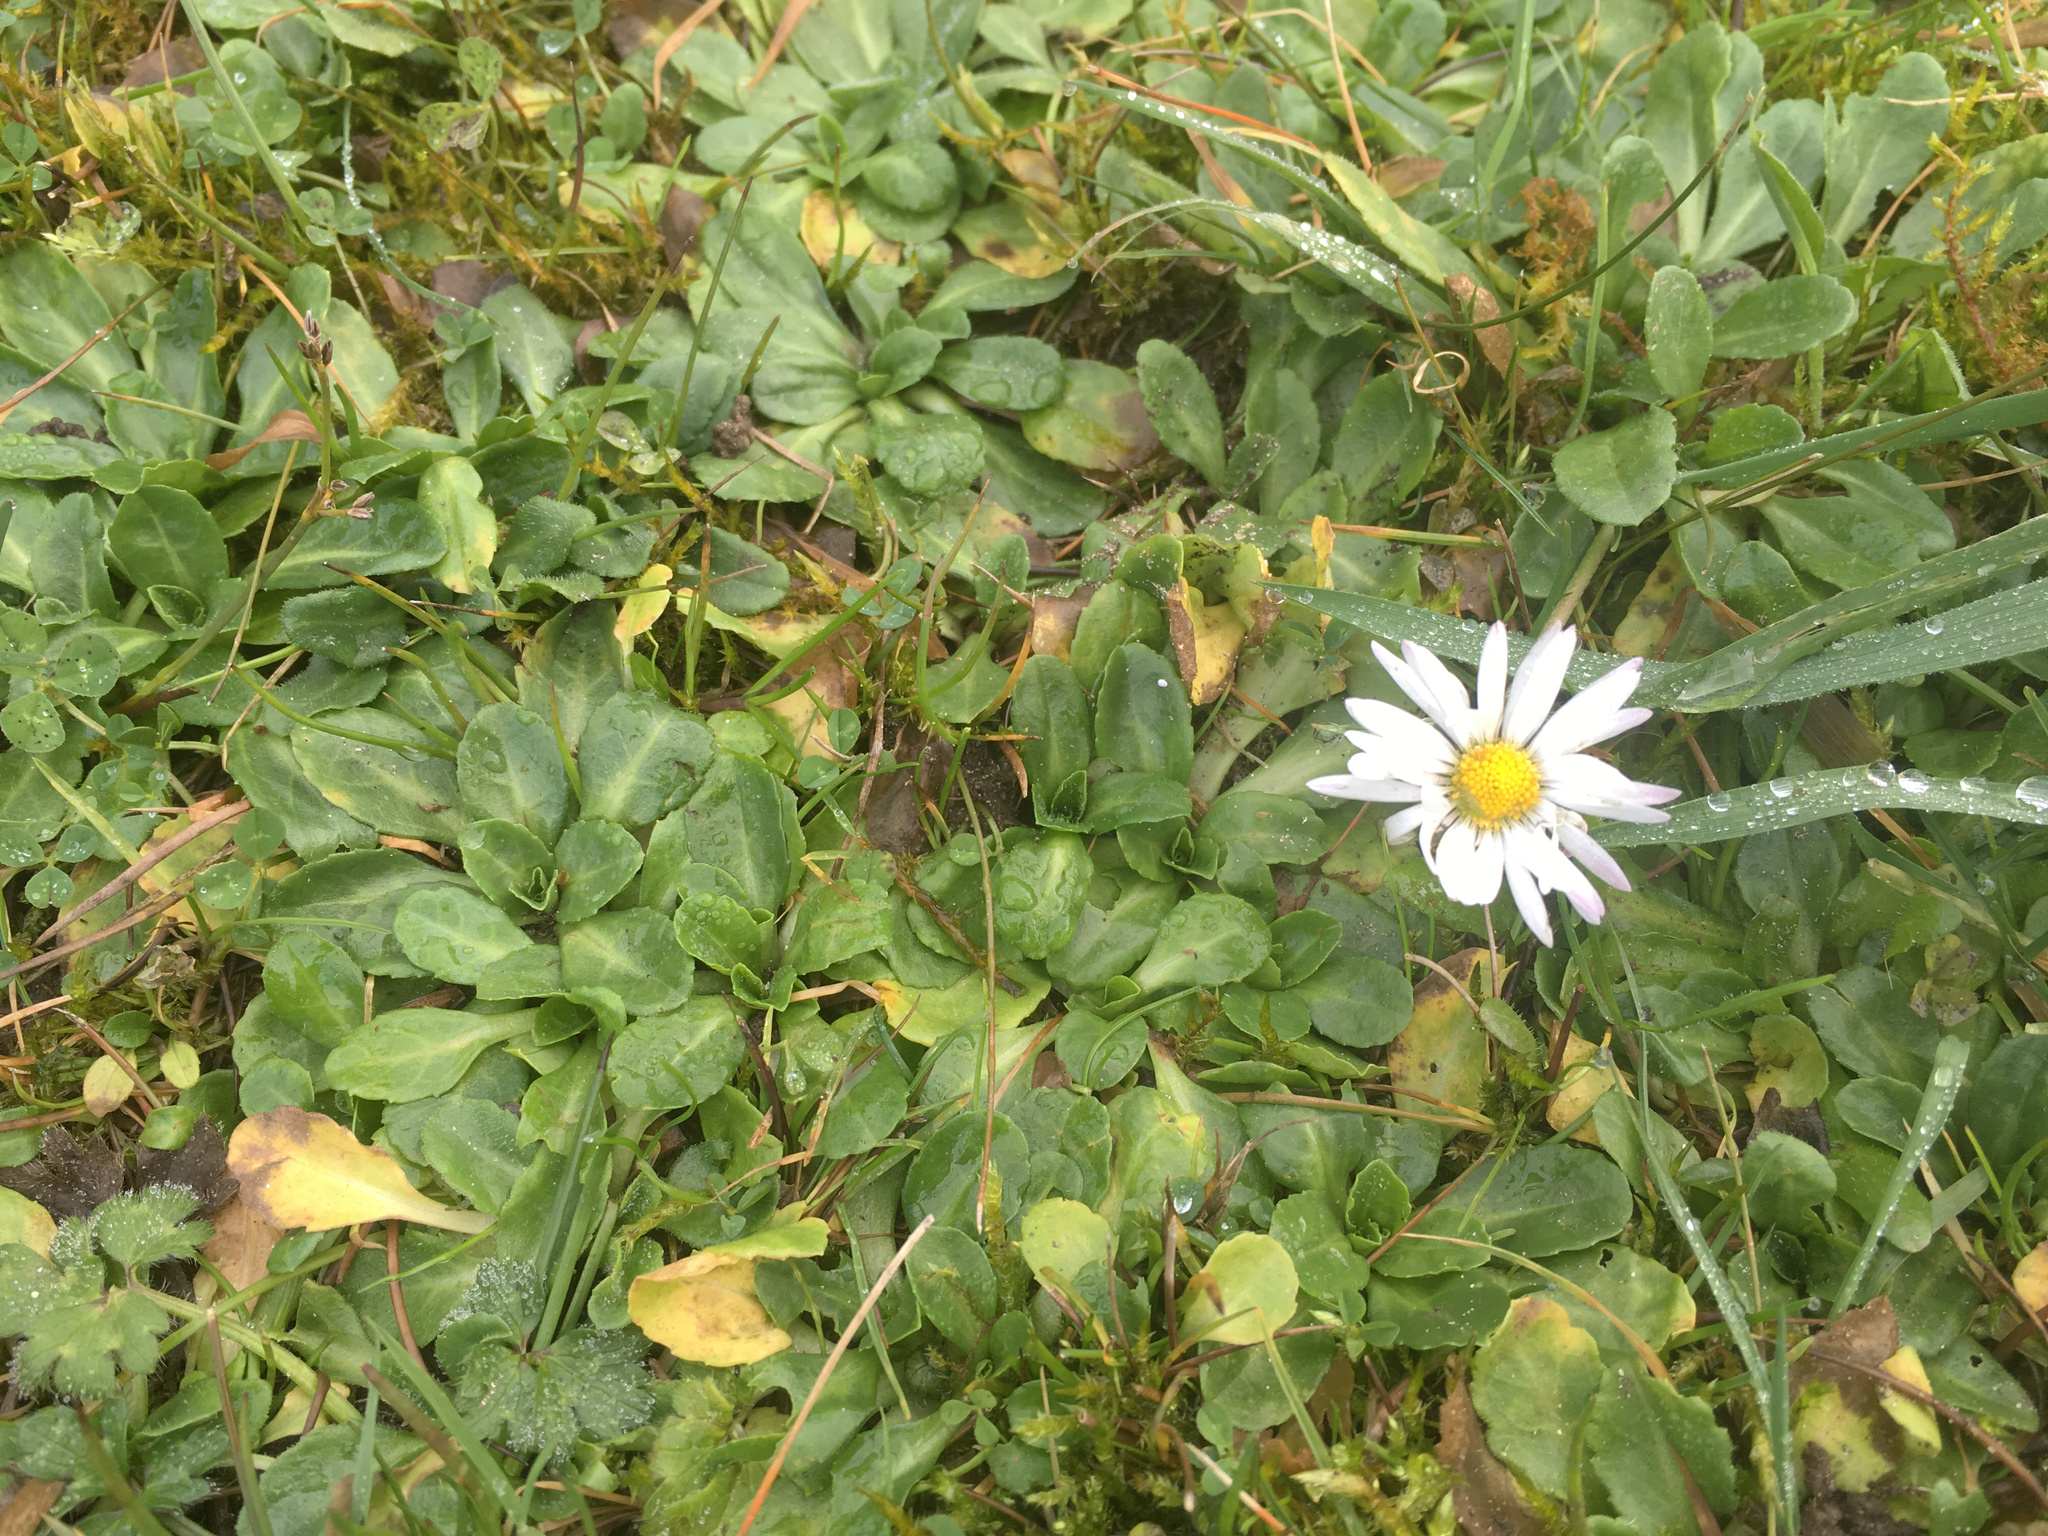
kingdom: Plantae
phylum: Tracheophyta
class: Magnoliopsida
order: Asterales
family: Asteraceae
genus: Bellis
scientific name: Bellis perennis
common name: Lawndaisy
